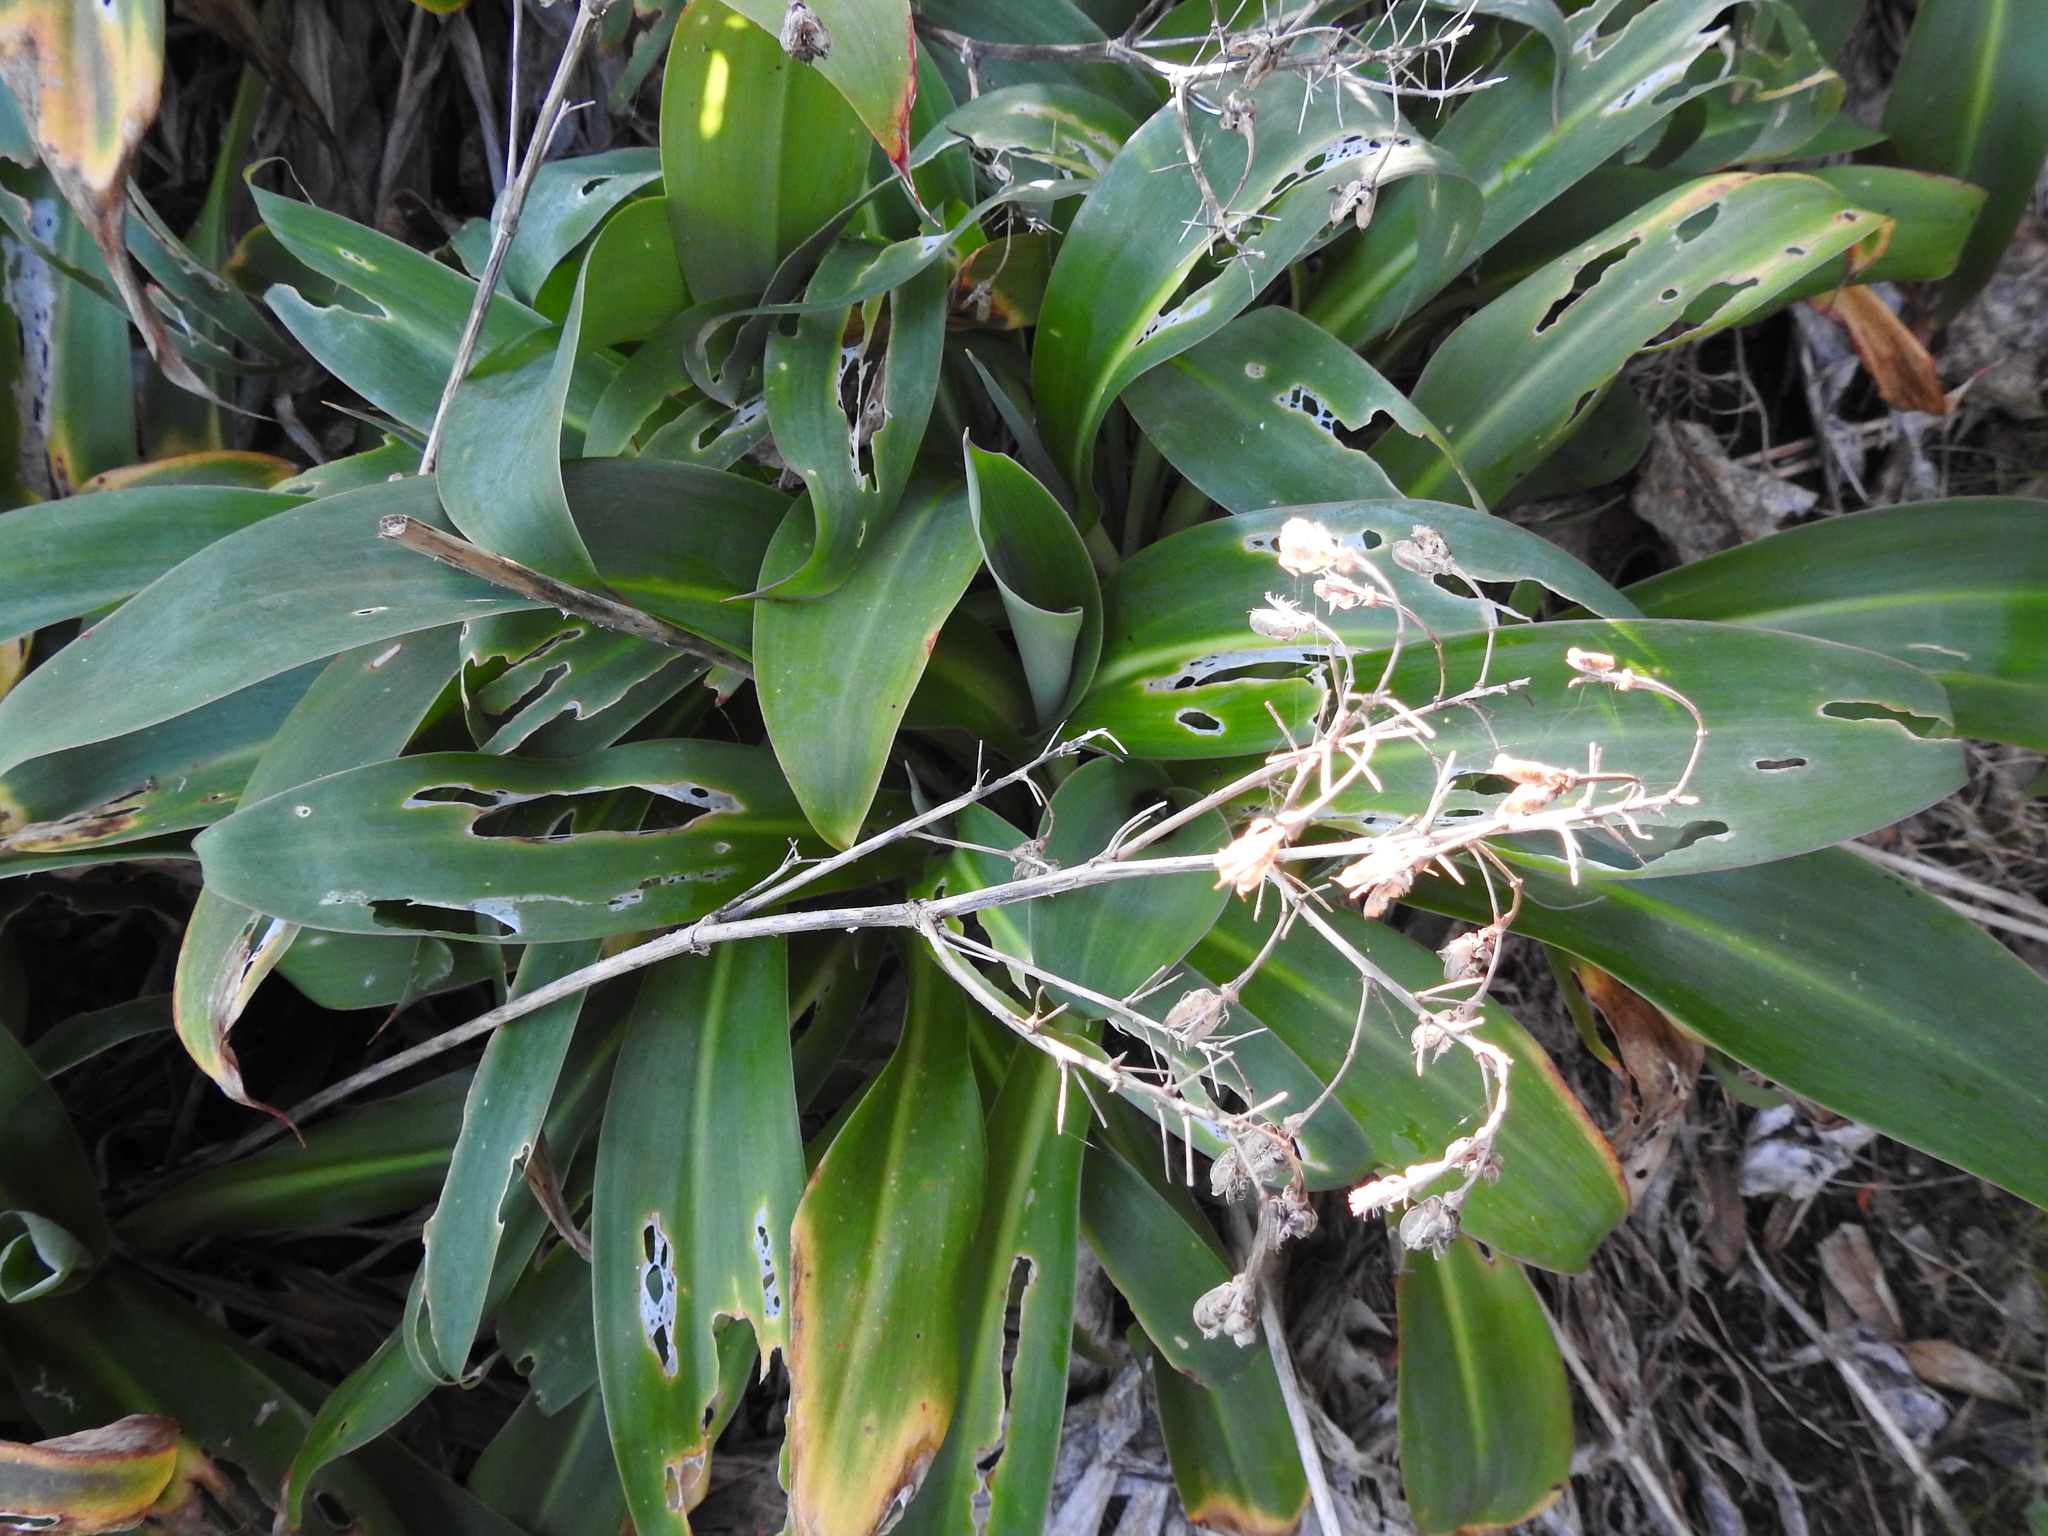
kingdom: Plantae
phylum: Tracheophyta
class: Liliopsida
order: Asparagales
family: Asparagaceae
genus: Arthropodium
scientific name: Arthropodium cirratum
